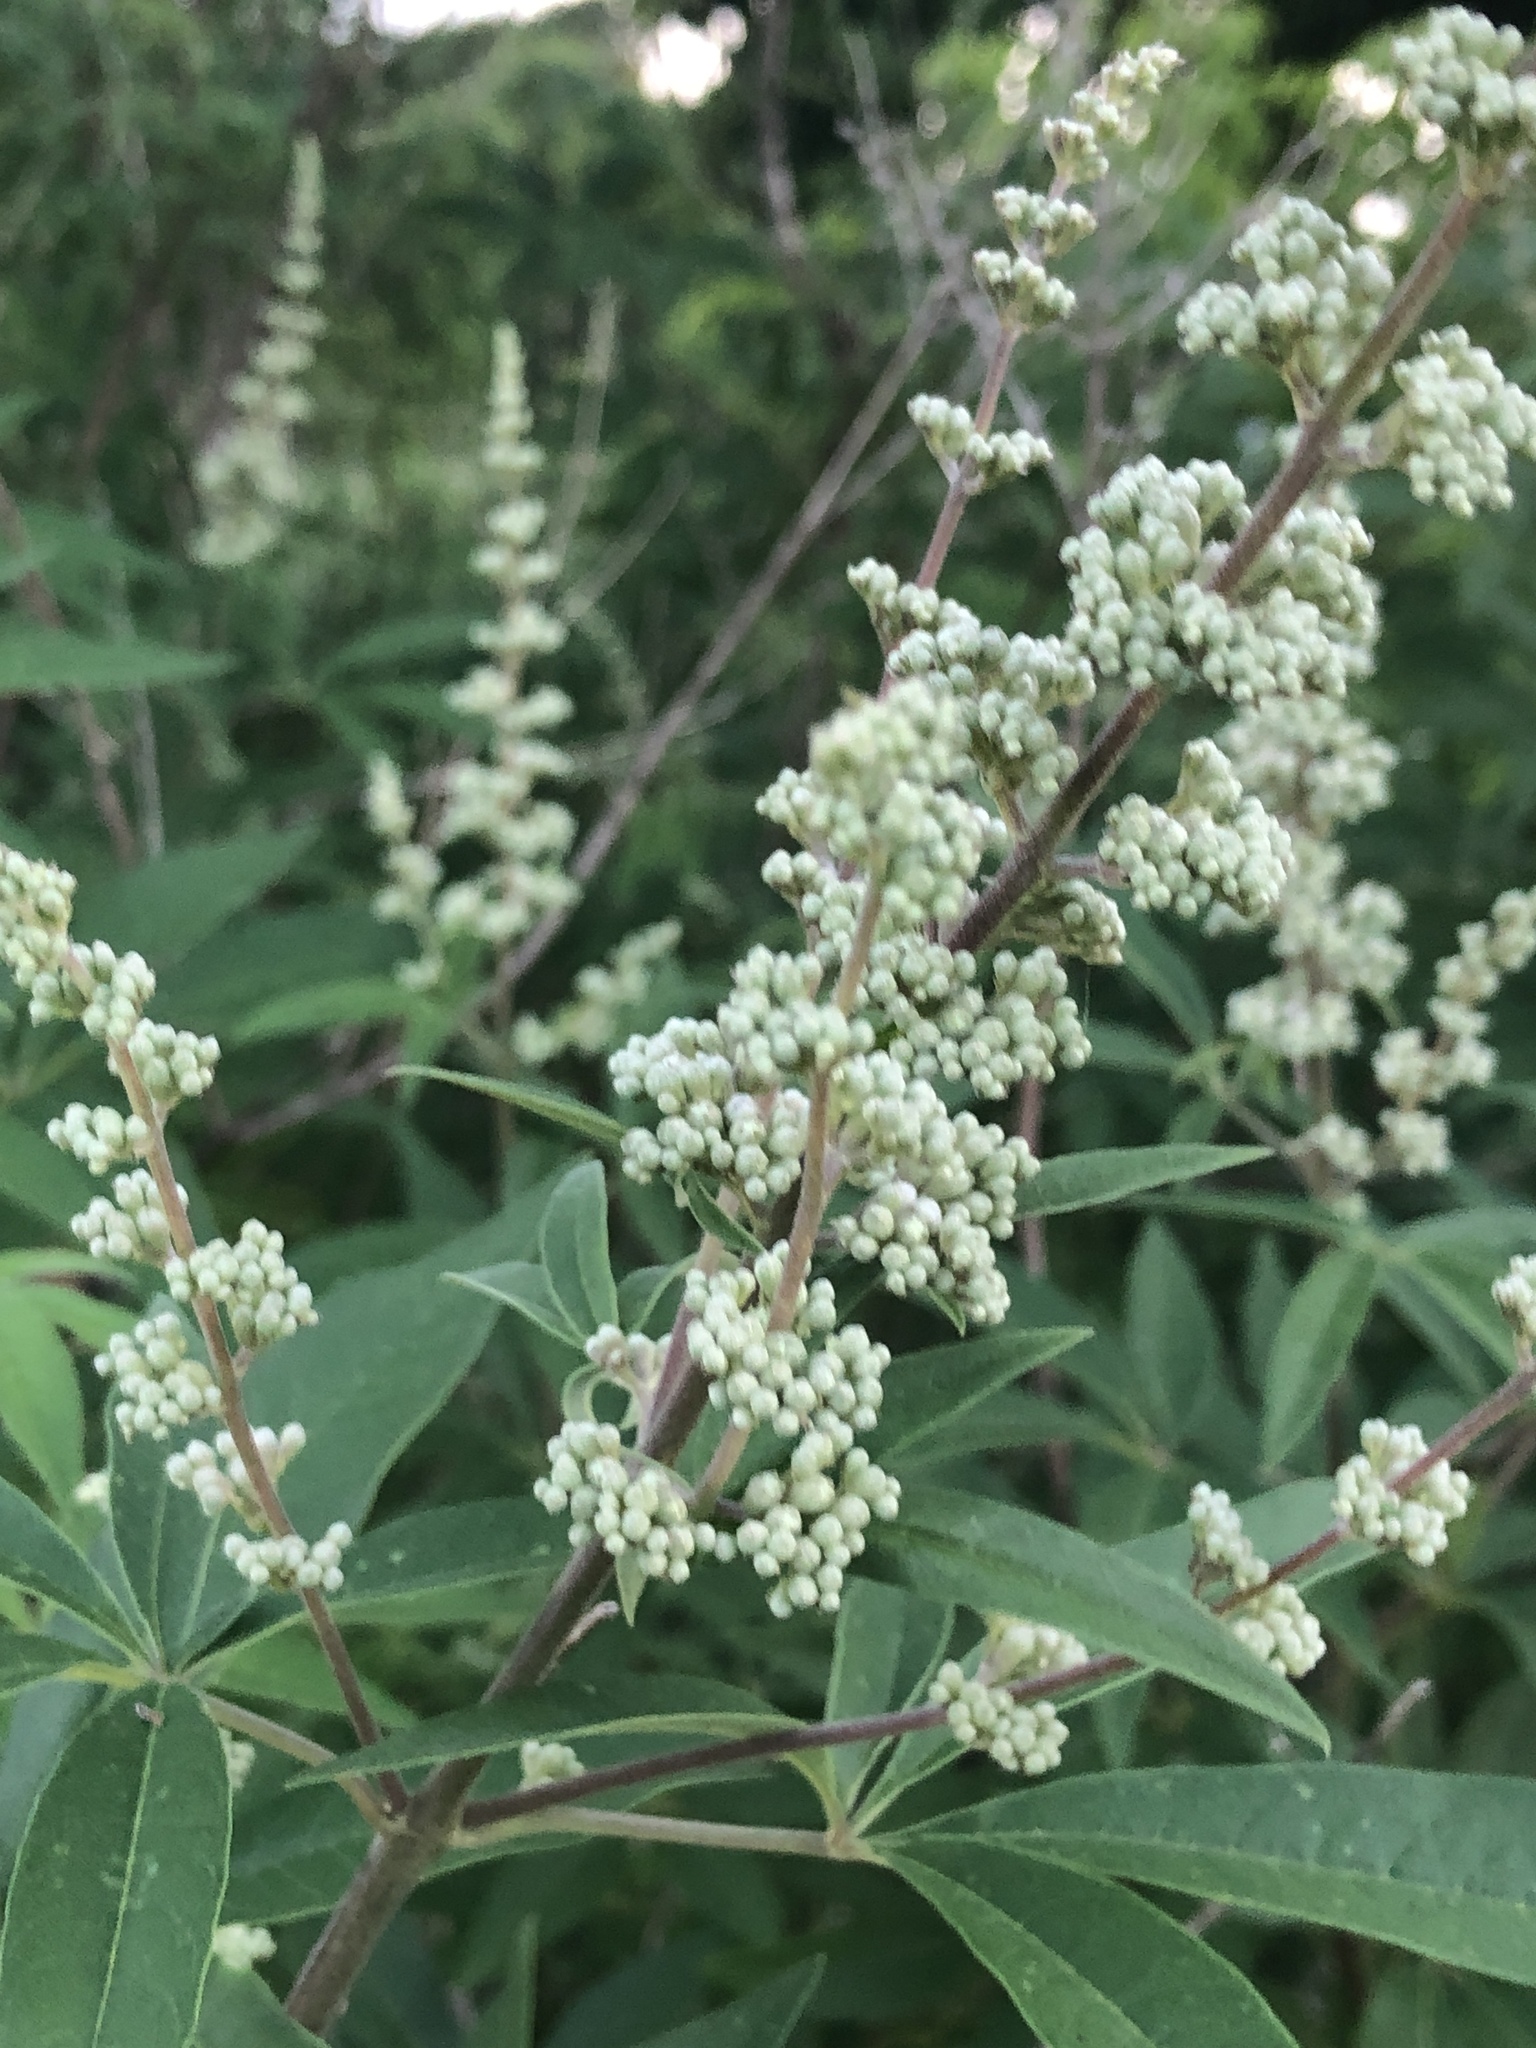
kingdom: Plantae
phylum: Tracheophyta
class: Magnoliopsida
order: Lamiales
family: Lamiaceae
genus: Vitex
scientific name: Vitex agnus-castus
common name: Chasteberry
